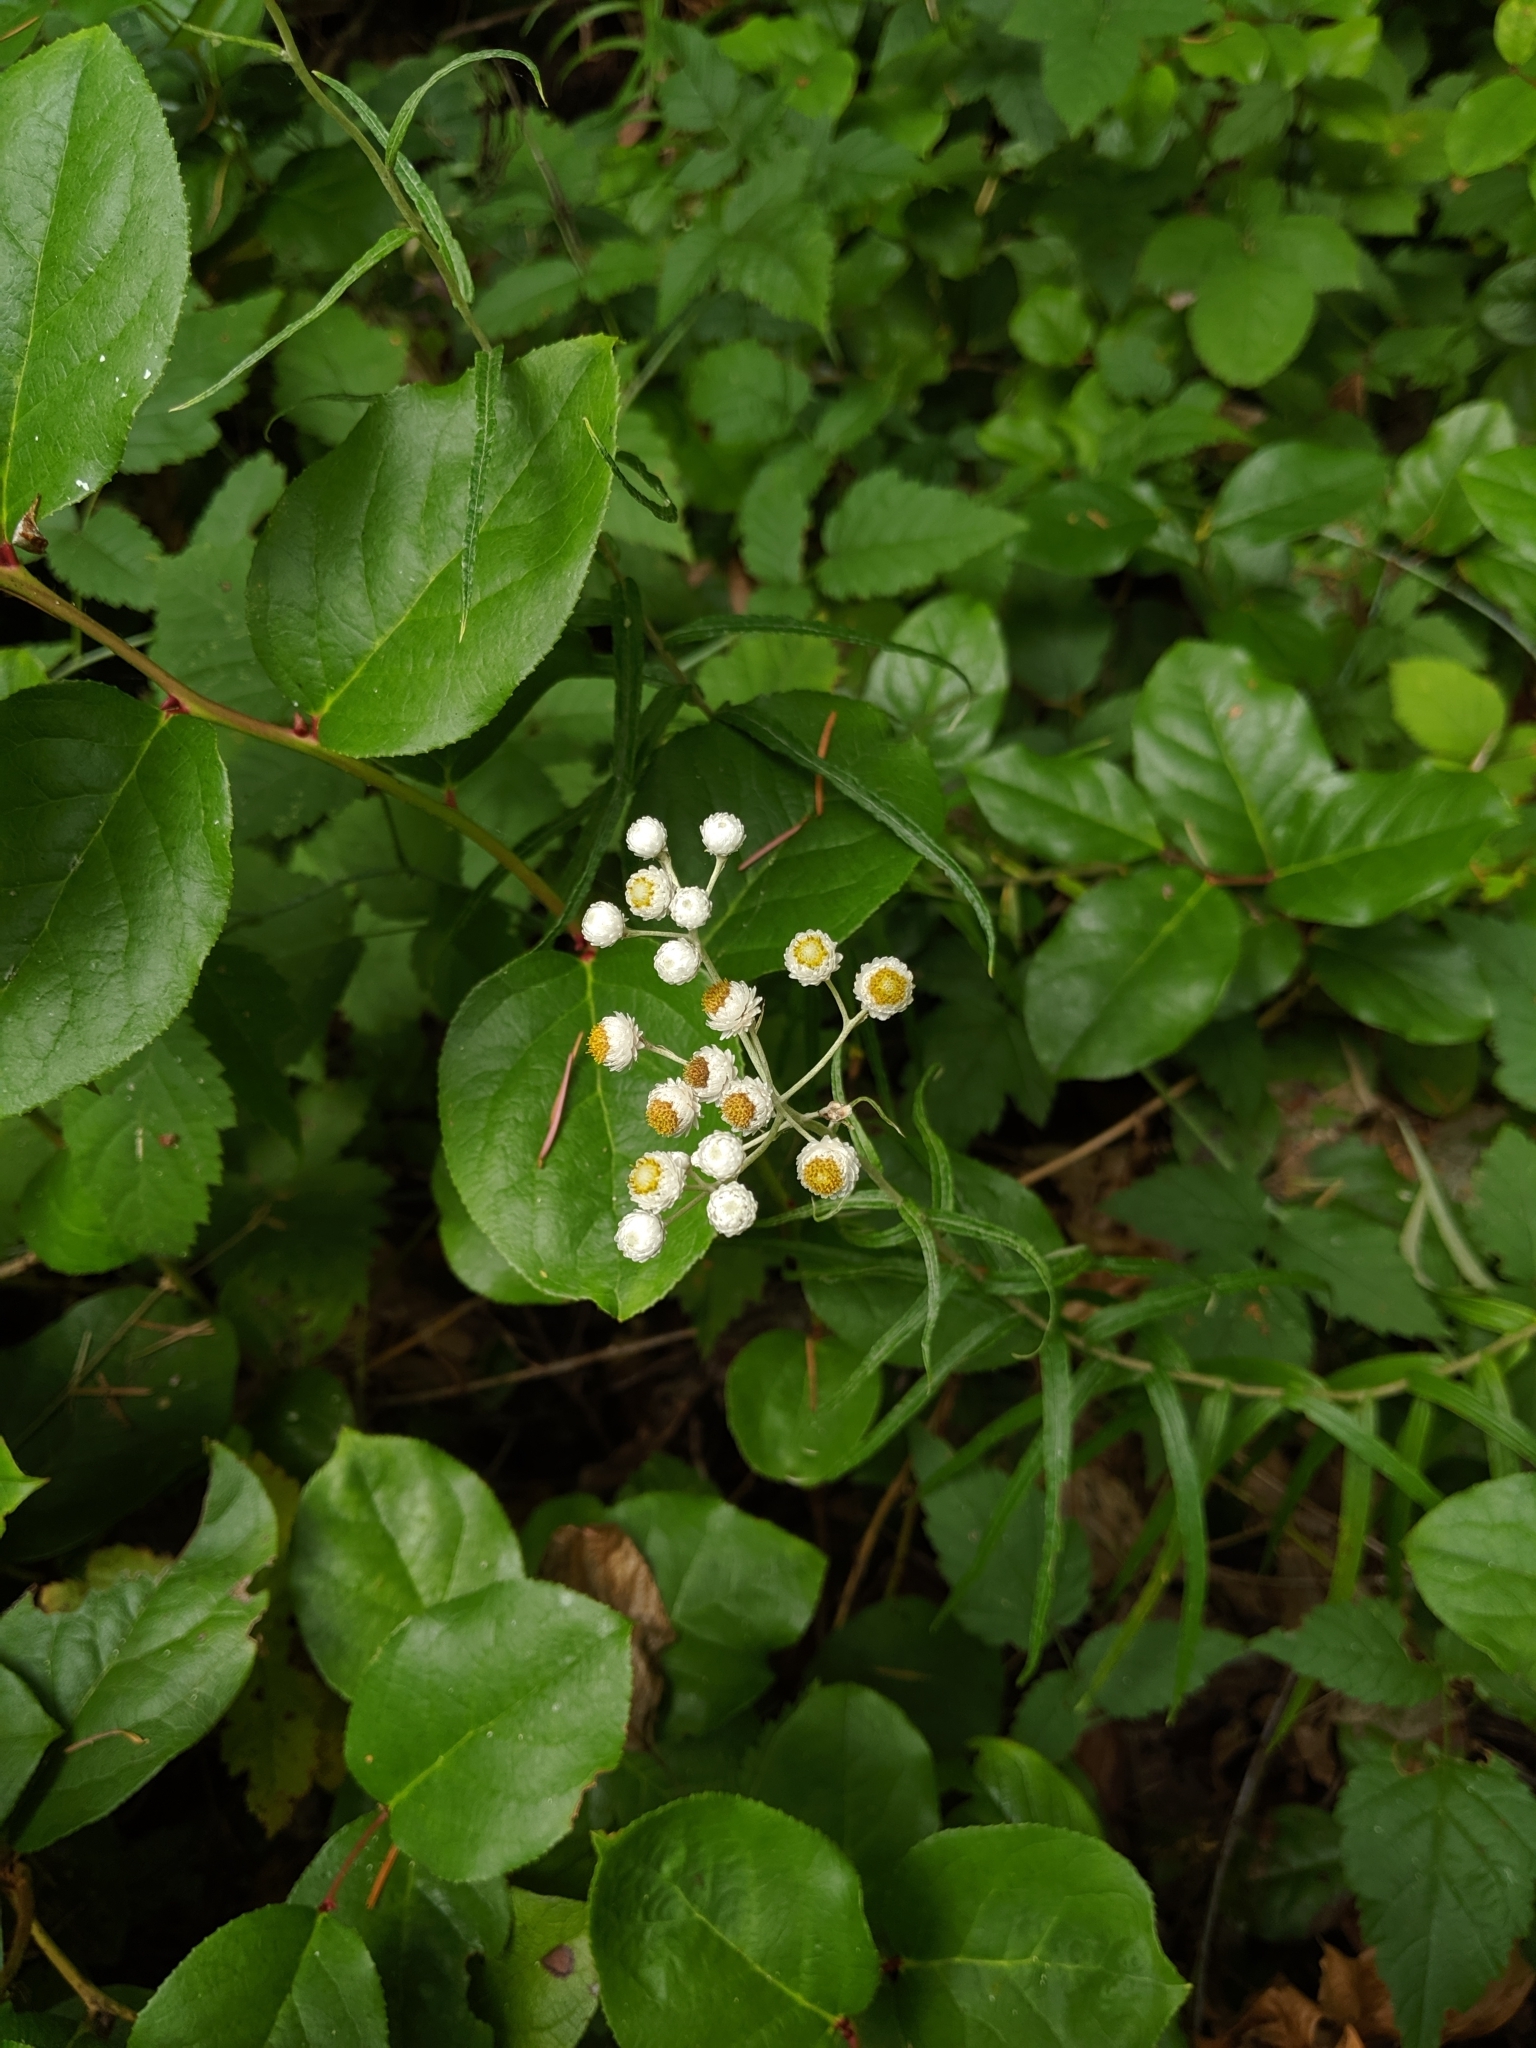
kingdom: Plantae
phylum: Tracheophyta
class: Magnoliopsida
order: Asterales
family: Asteraceae
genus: Anaphalis
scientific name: Anaphalis margaritacea
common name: Pearly everlasting
